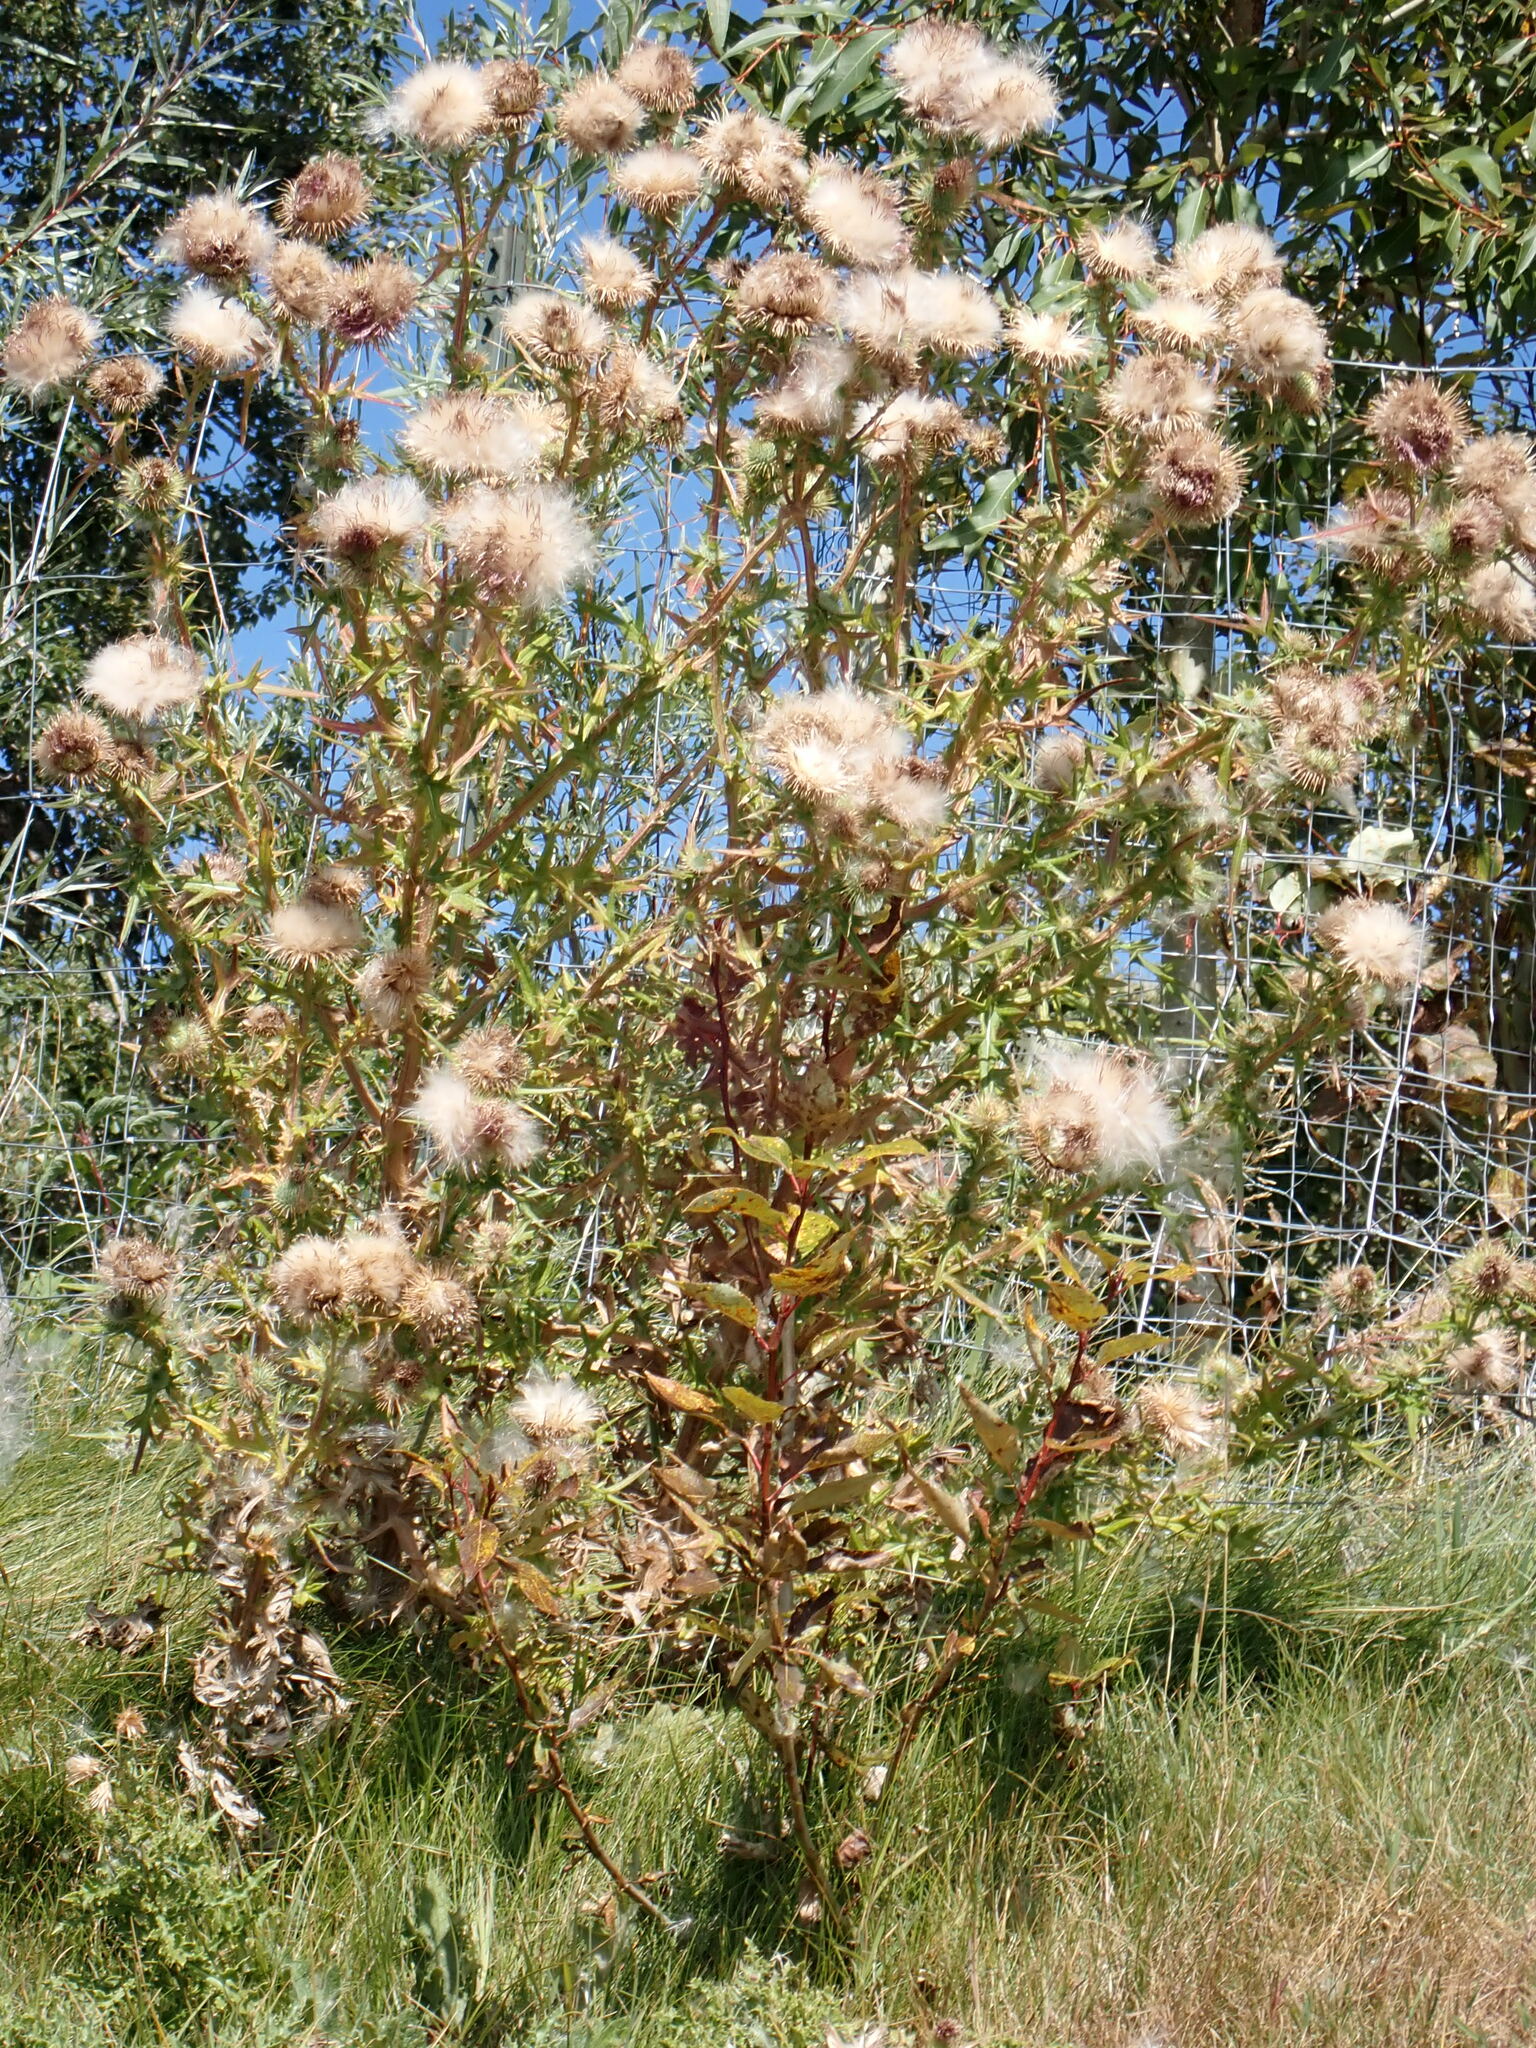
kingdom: Plantae
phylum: Tracheophyta
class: Magnoliopsida
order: Asterales
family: Asteraceae
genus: Cirsium
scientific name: Cirsium vulgare
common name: Bull thistle
